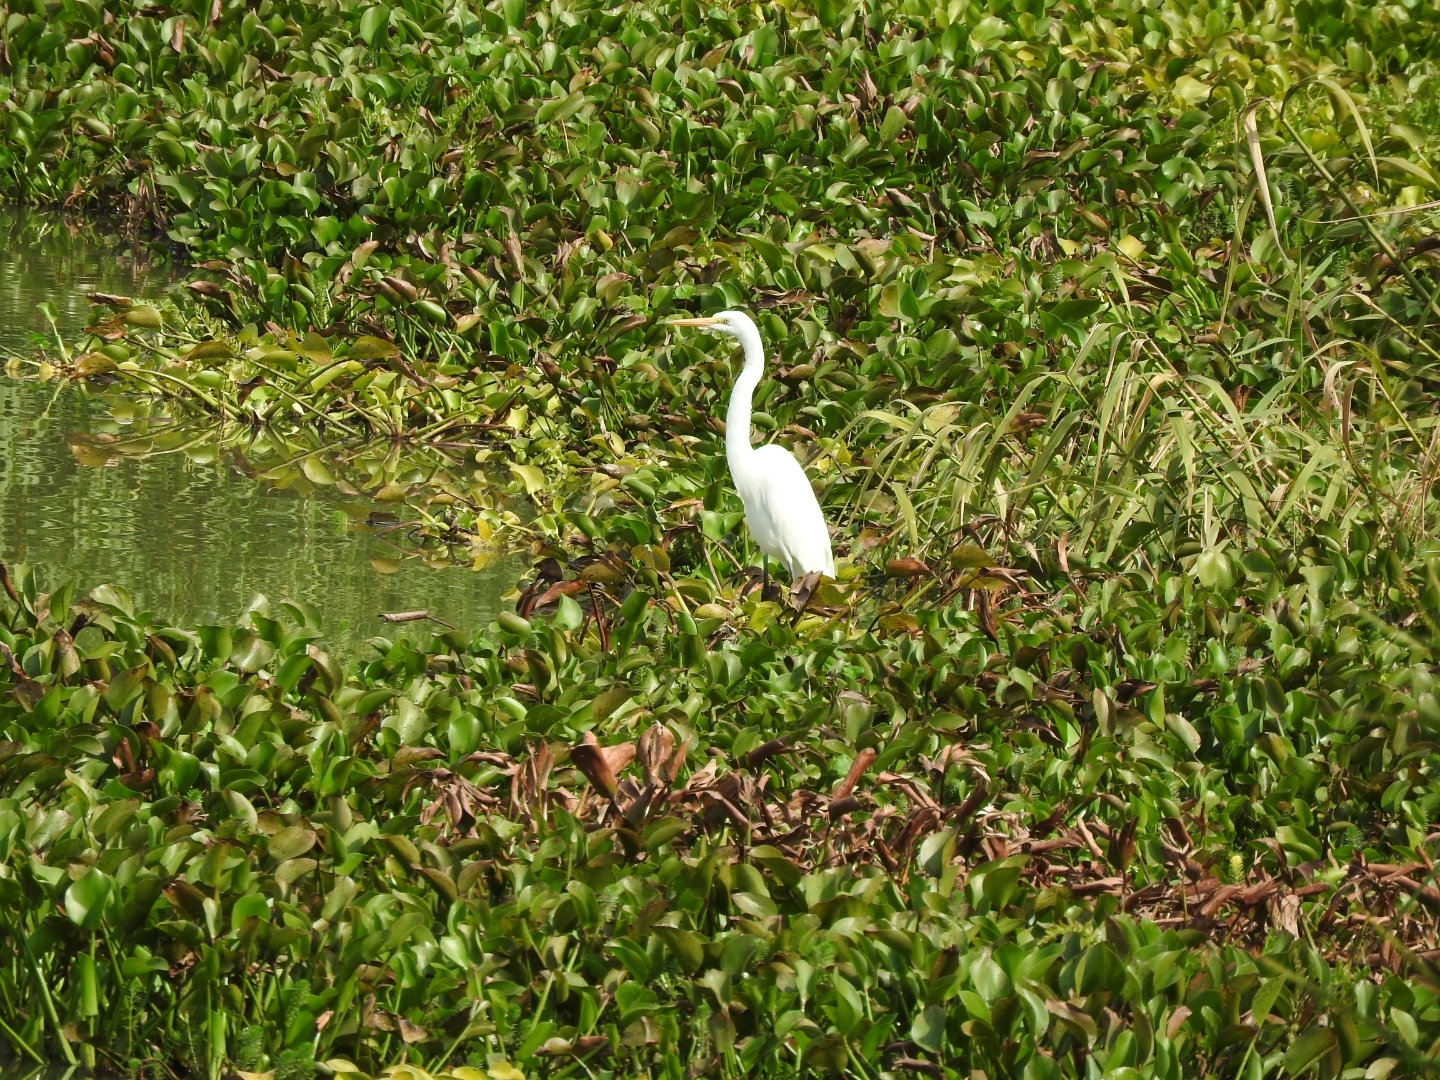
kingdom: Animalia
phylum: Chordata
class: Aves
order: Pelecaniformes
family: Ardeidae
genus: Ardea
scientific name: Ardea alba
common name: Great egret
